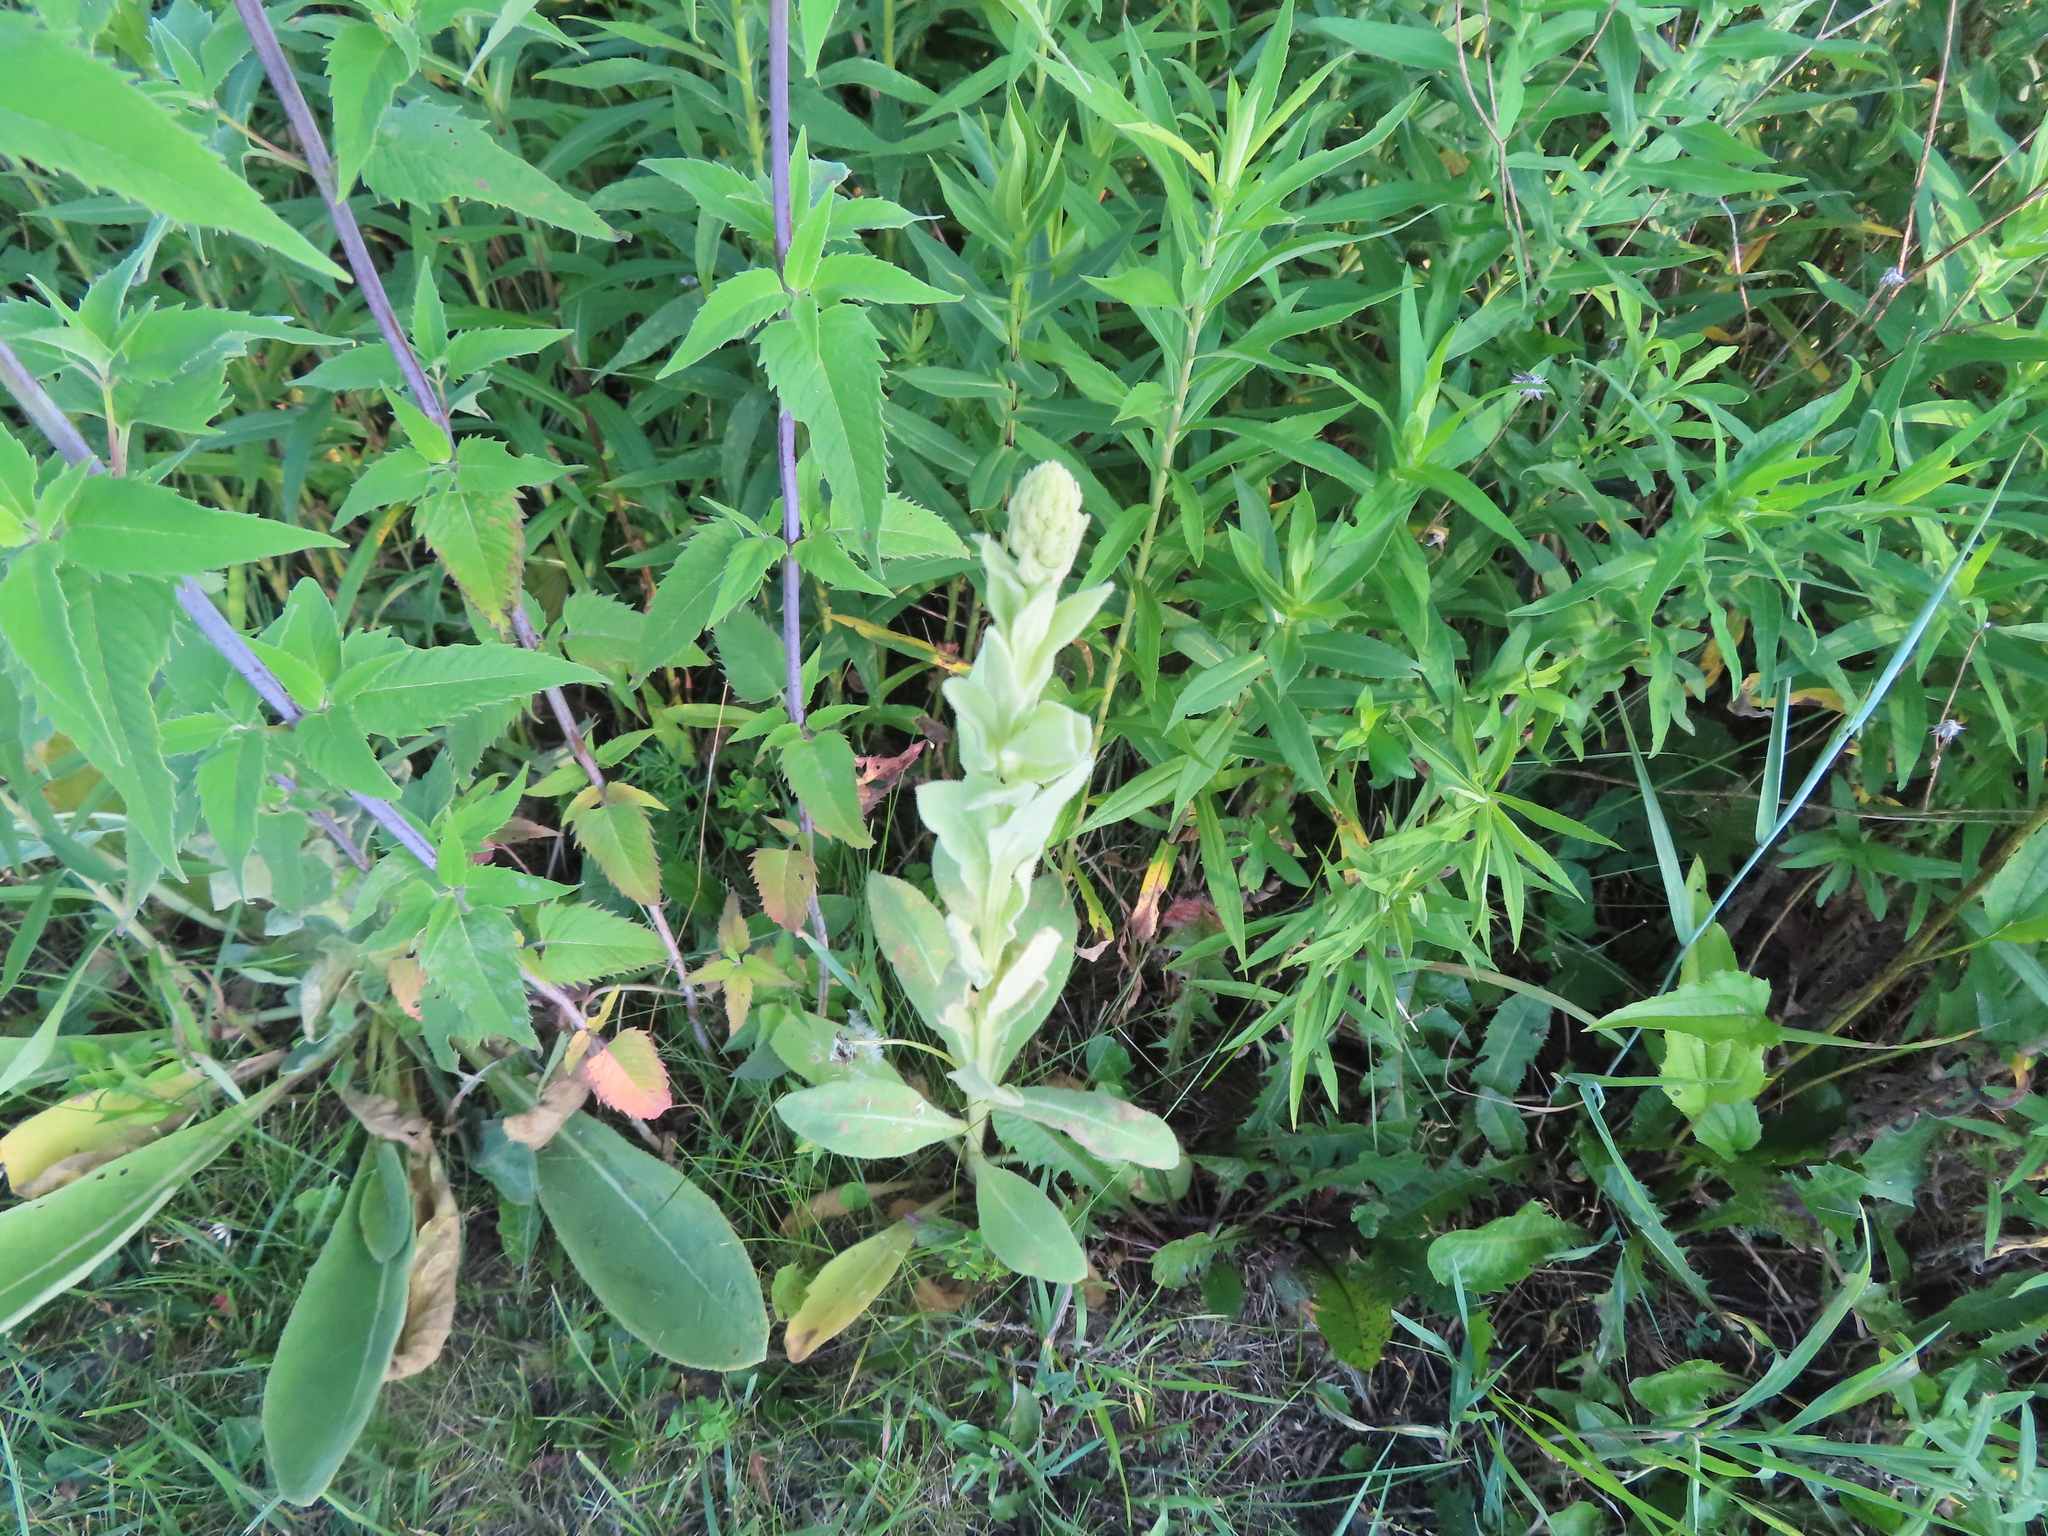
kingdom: Plantae
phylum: Tracheophyta
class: Magnoliopsida
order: Lamiales
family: Scrophulariaceae
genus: Verbascum
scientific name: Verbascum thapsus
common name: Common mullein
